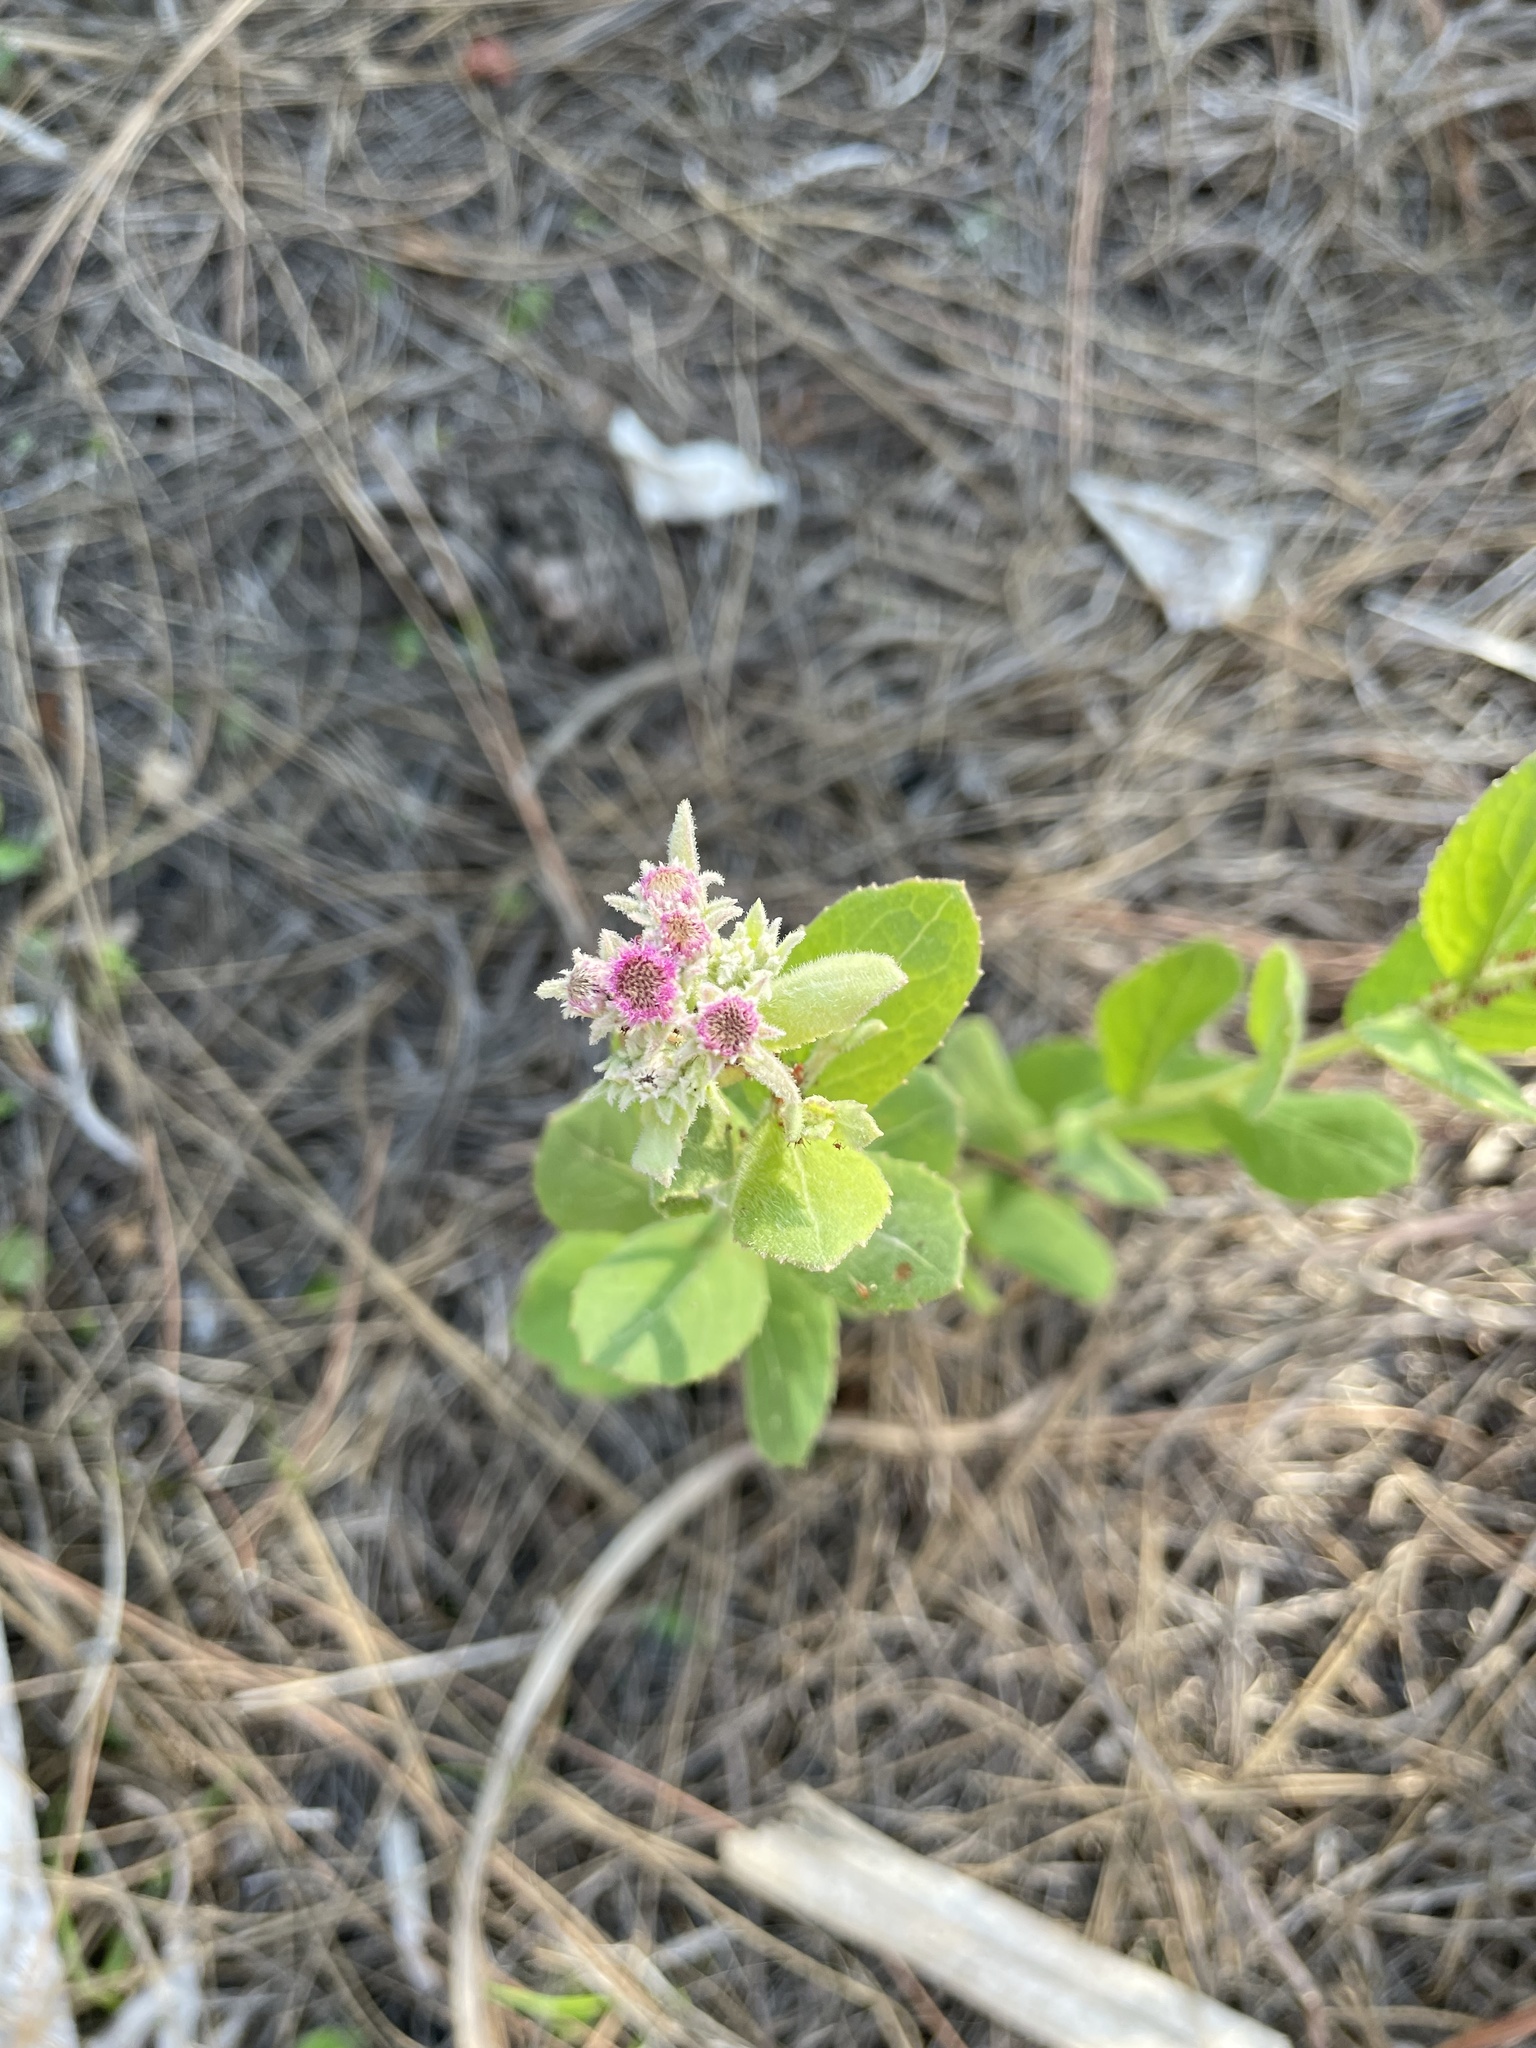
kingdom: Plantae
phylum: Tracheophyta
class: Magnoliopsida
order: Asterales
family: Asteraceae
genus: Pluchea
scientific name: Pluchea baccharis
